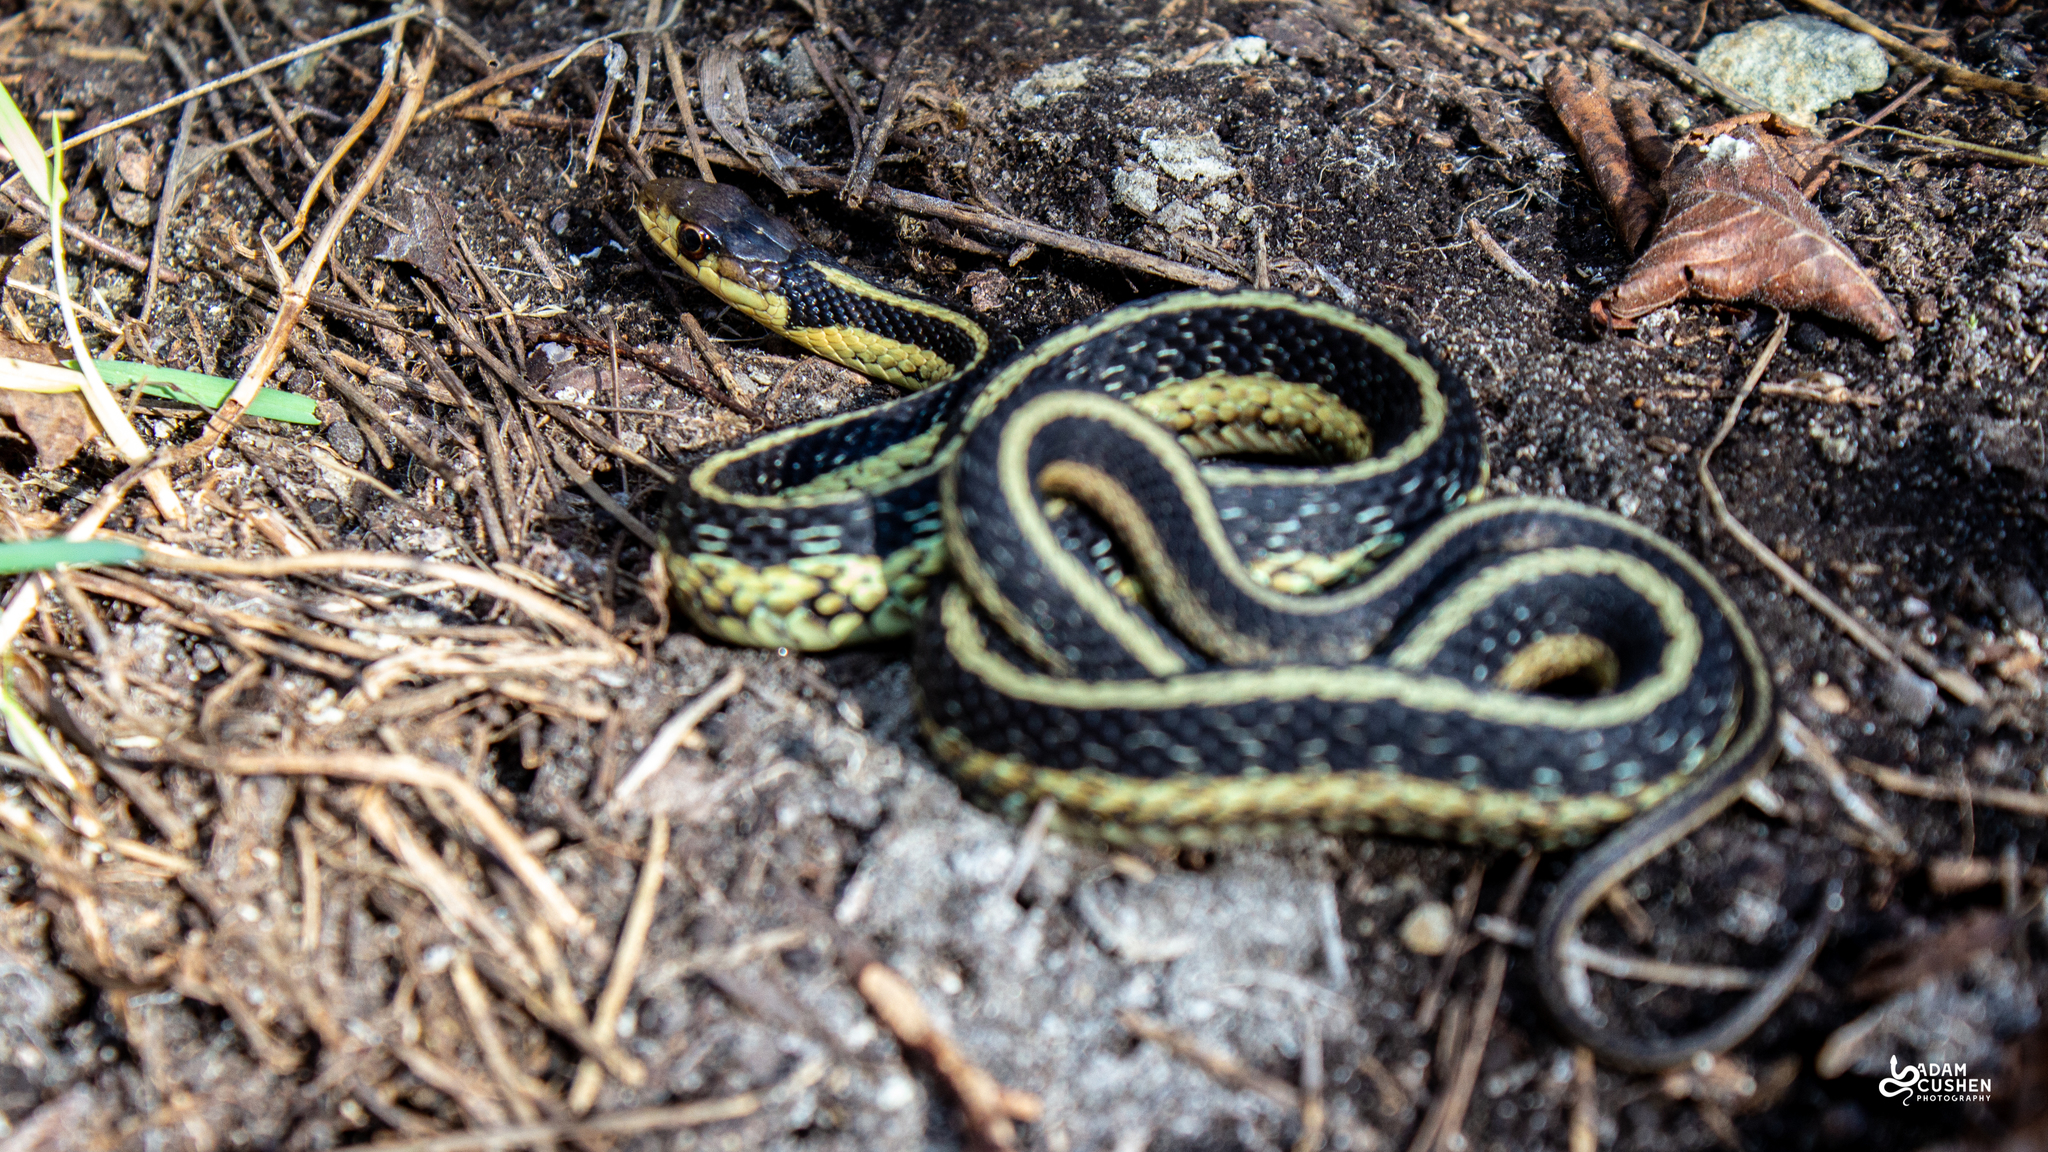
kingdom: Animalia
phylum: Chordata
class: Squamata
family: Colubridae
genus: Thamnophis
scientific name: Thamnophis sirtalis
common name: Common garter snake
